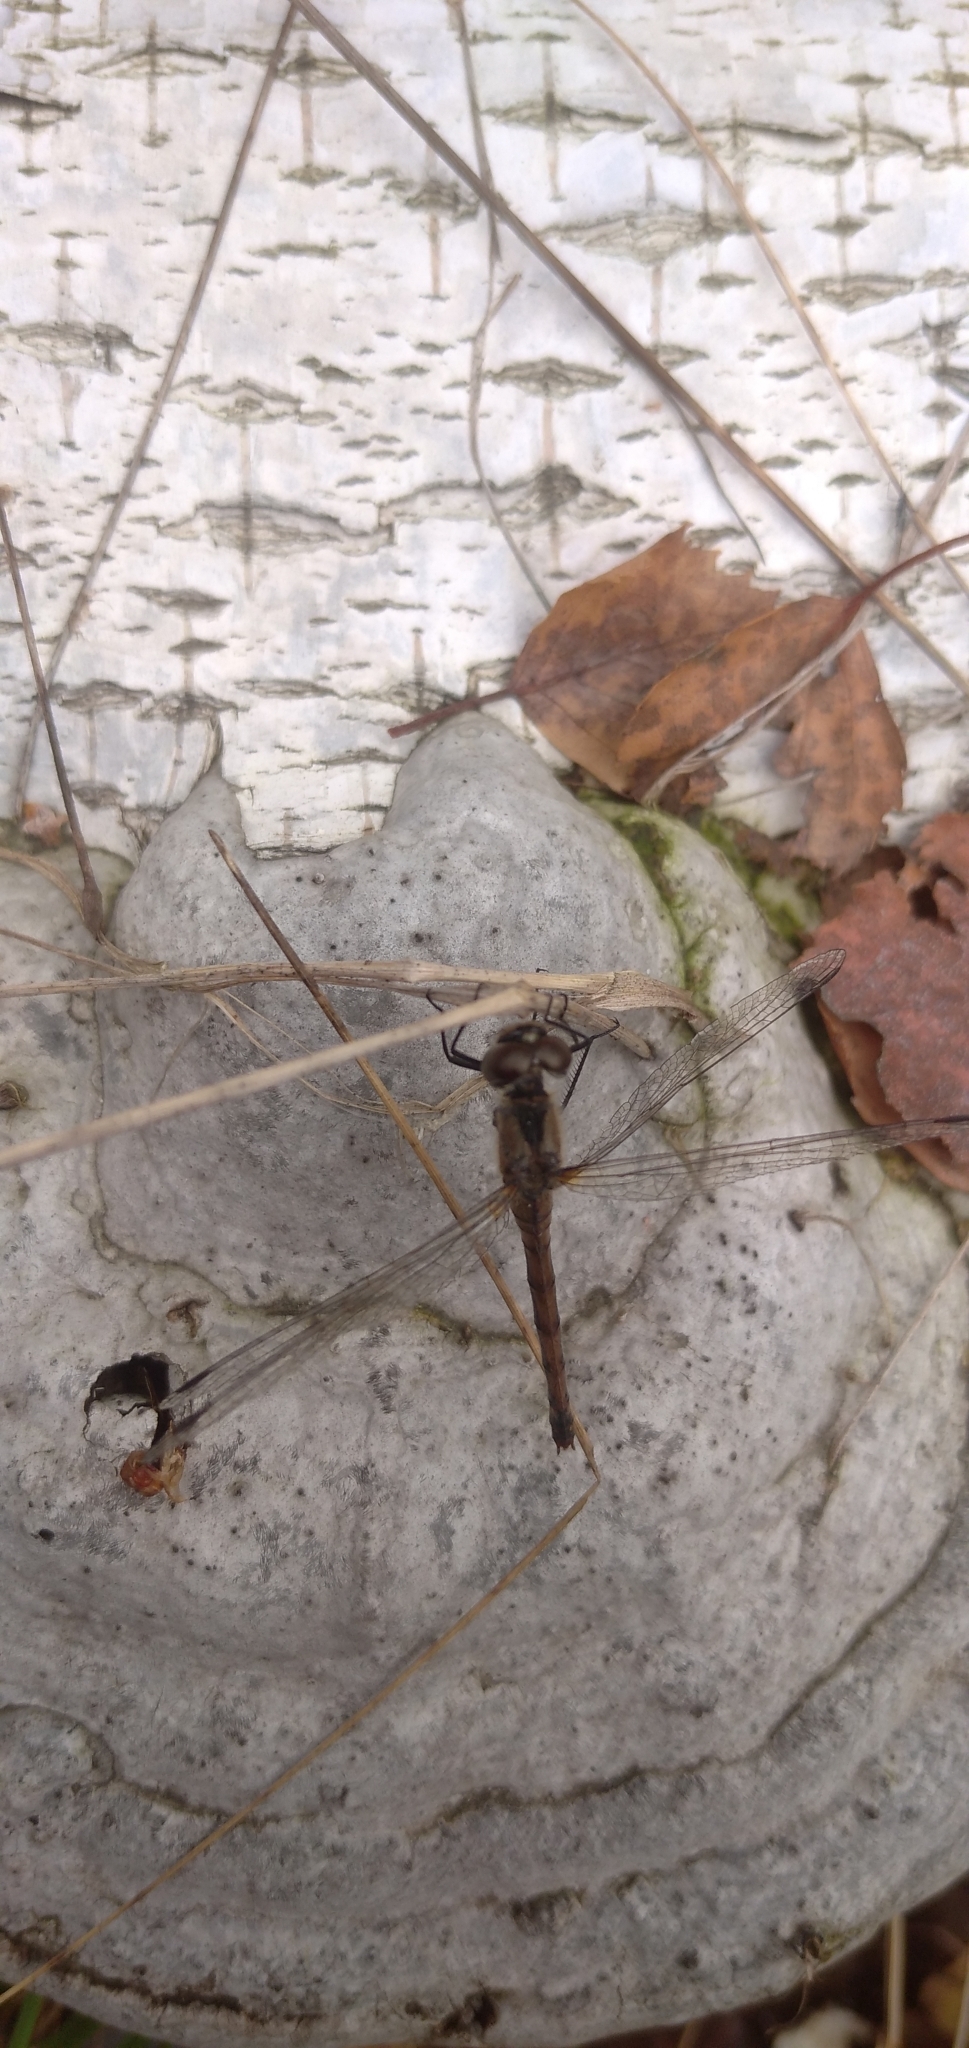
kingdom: Animalia
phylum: Arthropoda
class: Insecta
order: Odonata
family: Libellulidae
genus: Sympetrum
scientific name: Sympetrum danae
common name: Black darter
